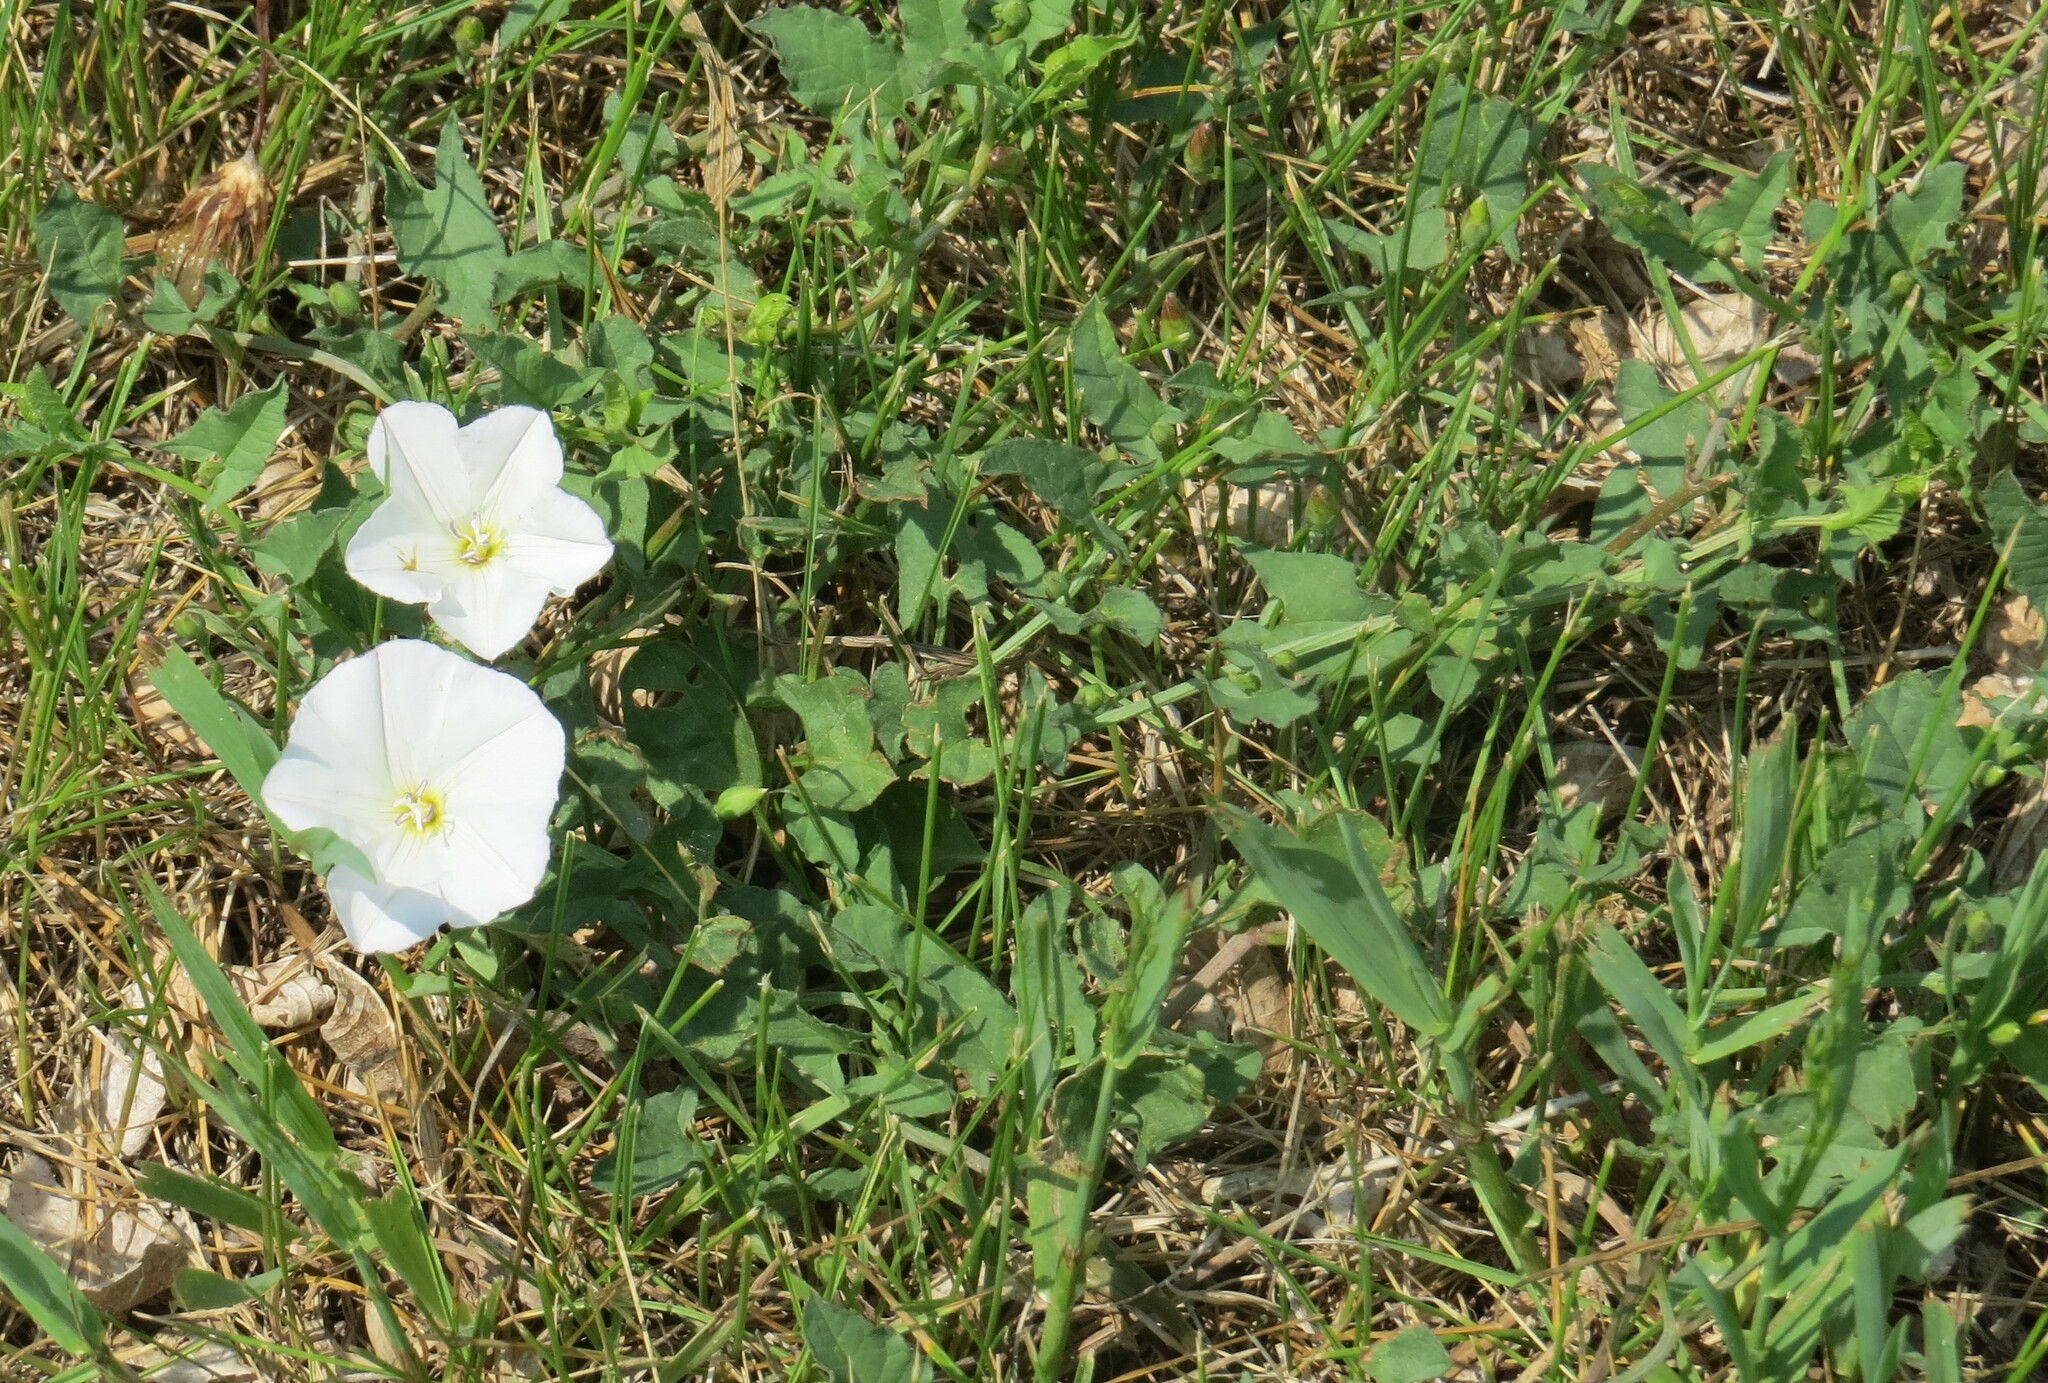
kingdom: Plantae
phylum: Tracheophyta
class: Magnoliopsida
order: Solanales
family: Convolvulaceae
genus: Convolvulus
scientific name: Convolvulus arvensis
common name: Field bindweed
